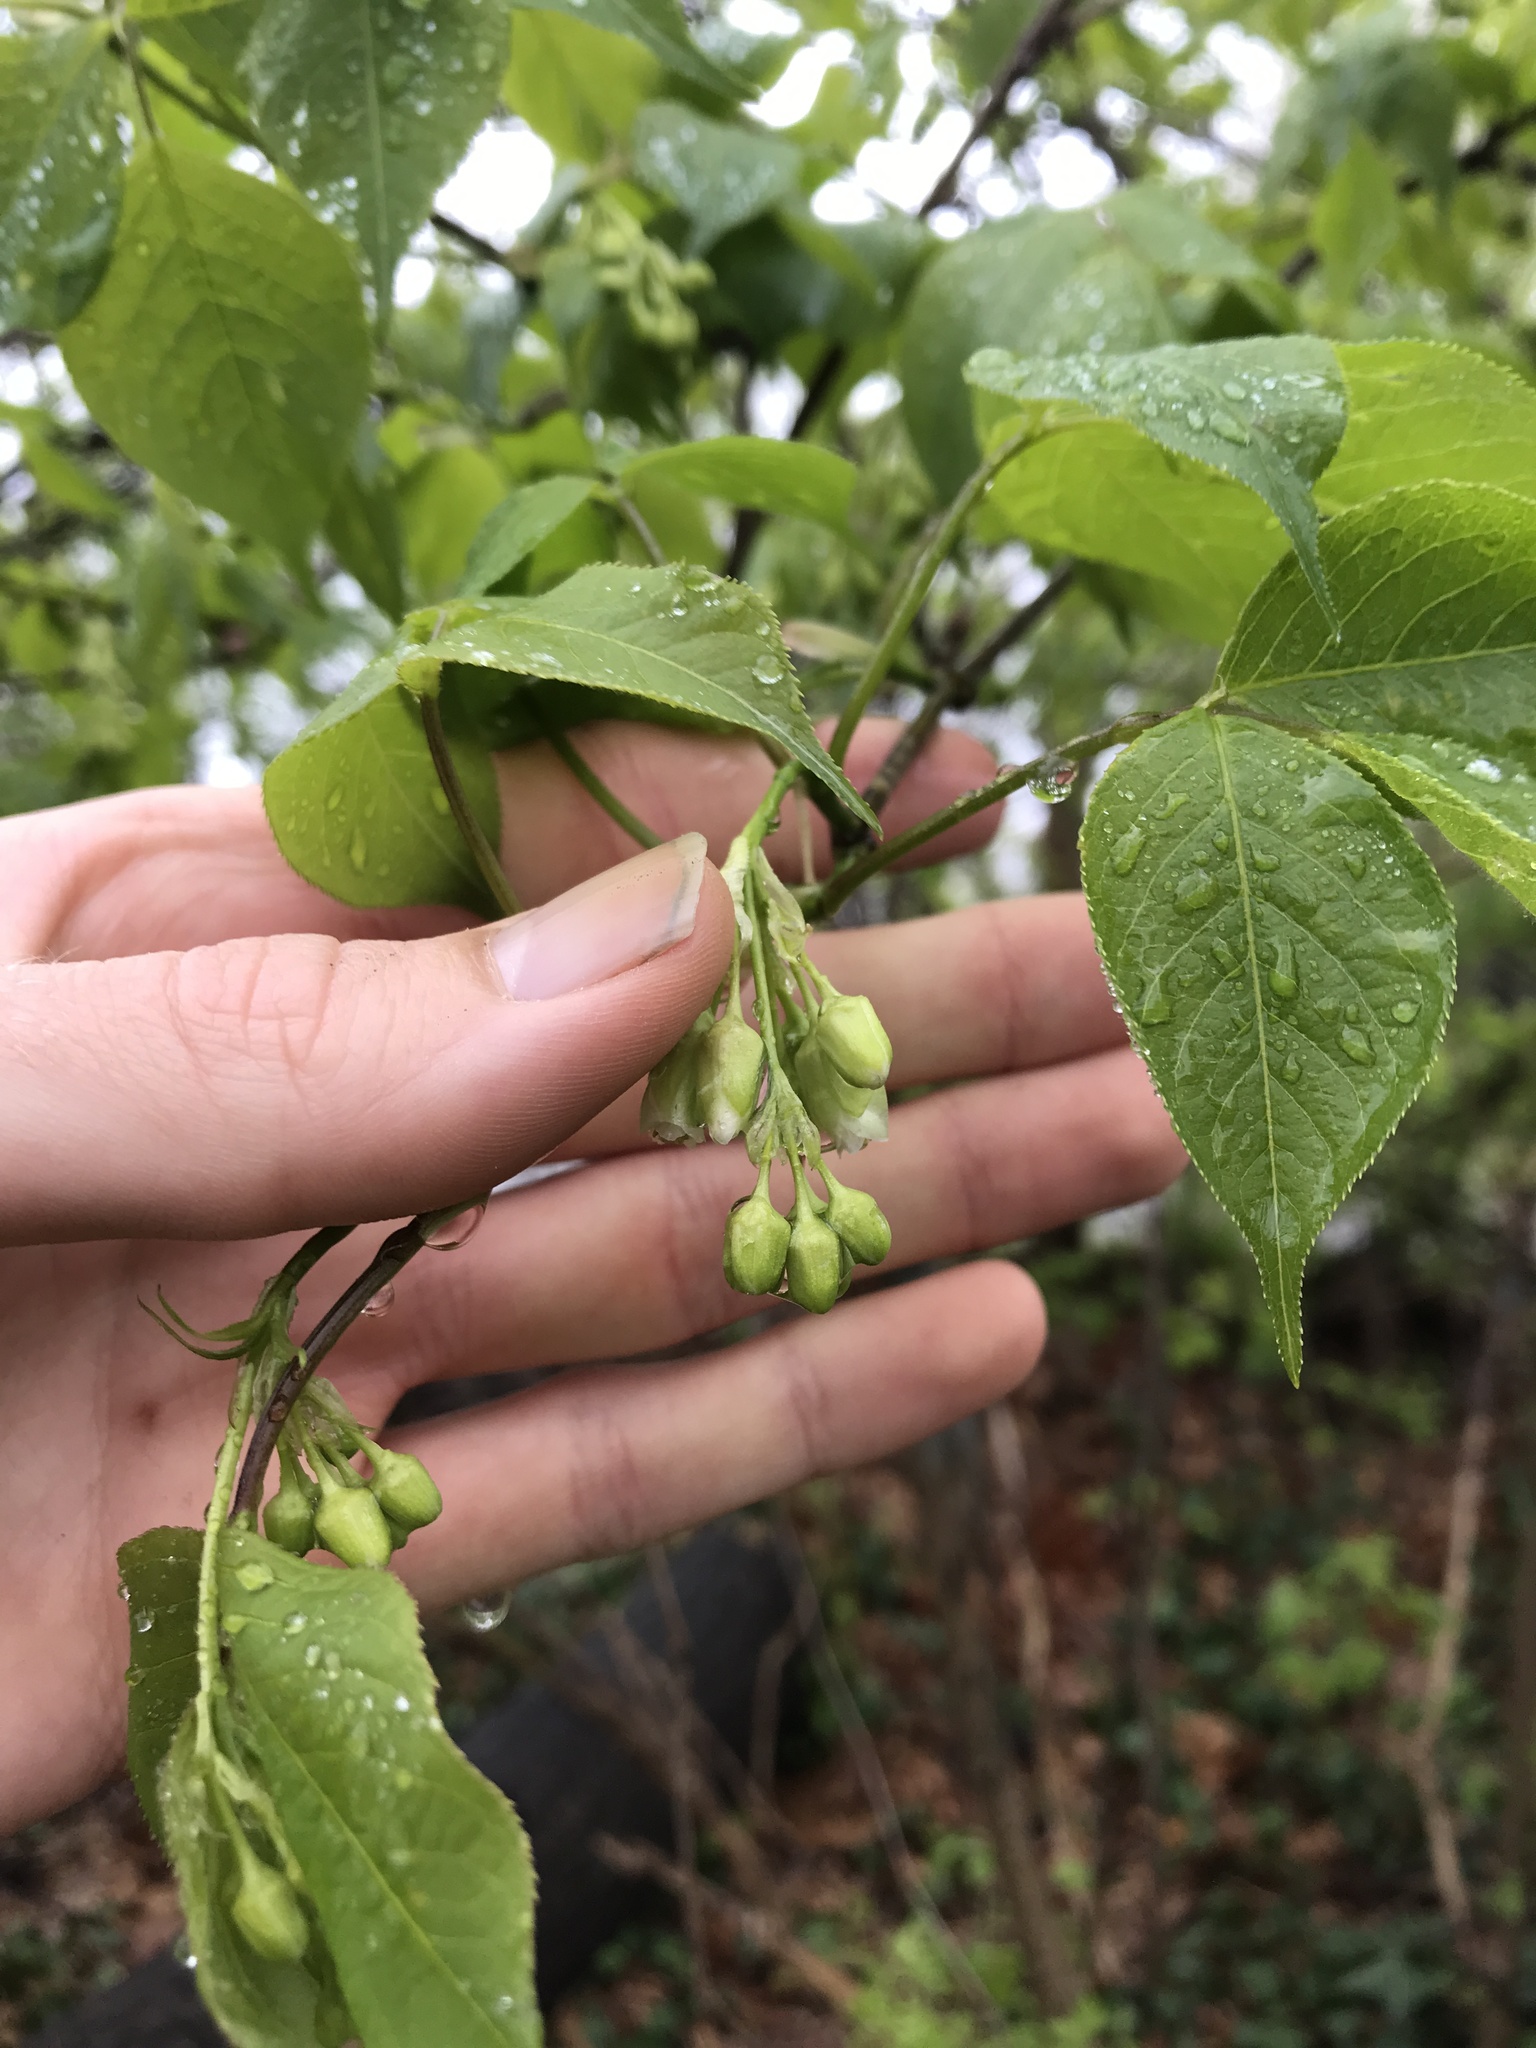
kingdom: Plantae
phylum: Tracheophyta
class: Magnoliopsida
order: Crossosomatales
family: Staphyleaceae
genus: Staphylea
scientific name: Staphylea trifolia
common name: American bladdernut
